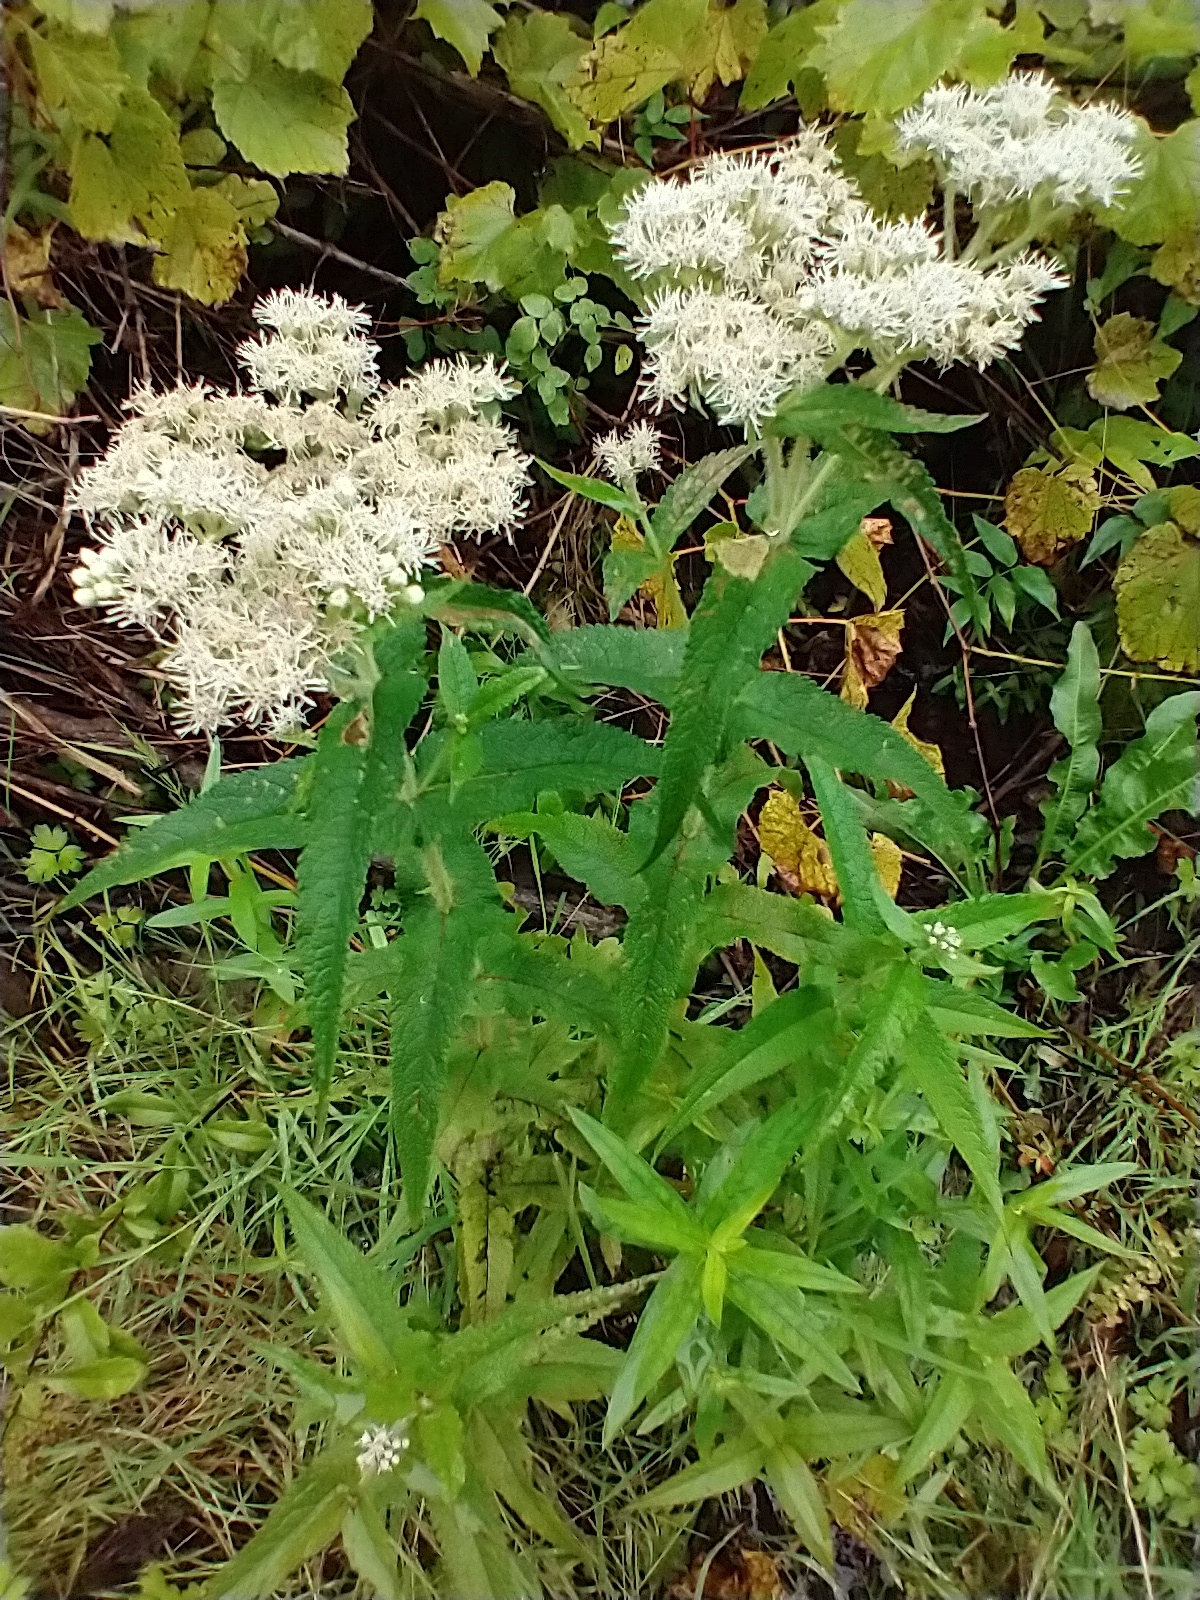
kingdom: Plantae
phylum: Tracheophyta
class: Magnoliopsida
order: Asterales
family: Asteraceae
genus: Eupatorium
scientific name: Eupatorium perfoliatum
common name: Boneset
